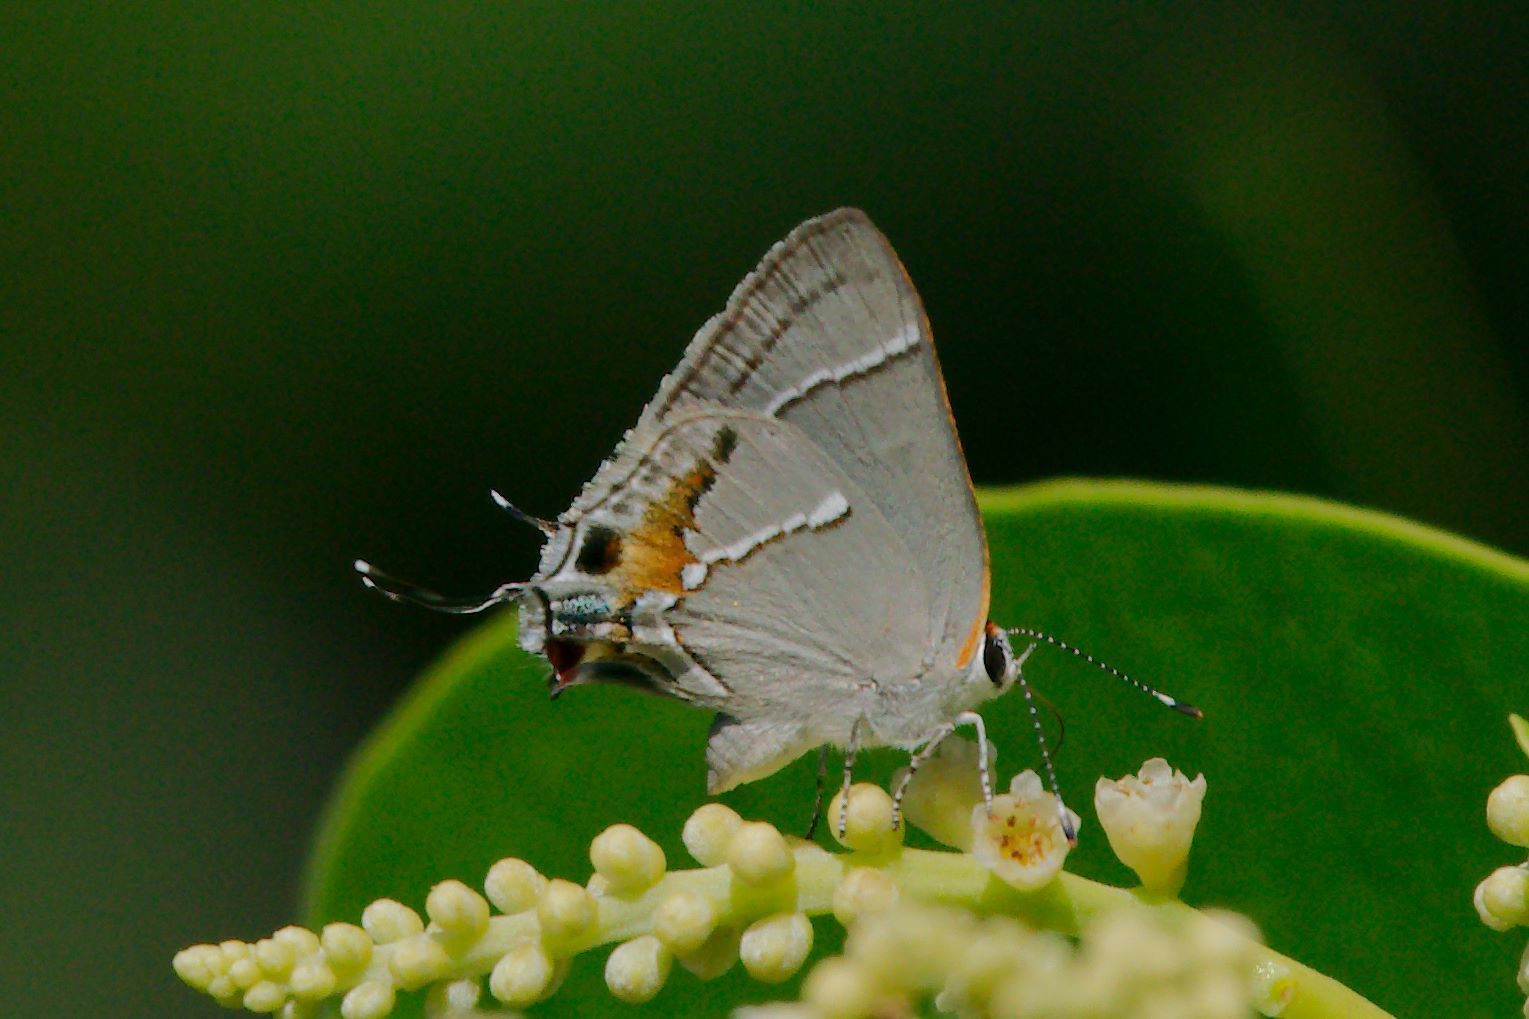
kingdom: Animalia
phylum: Arthropoda
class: Insecta
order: Lepidoptera
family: Lycaenidae
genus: Thecla
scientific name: Thecla martialis
